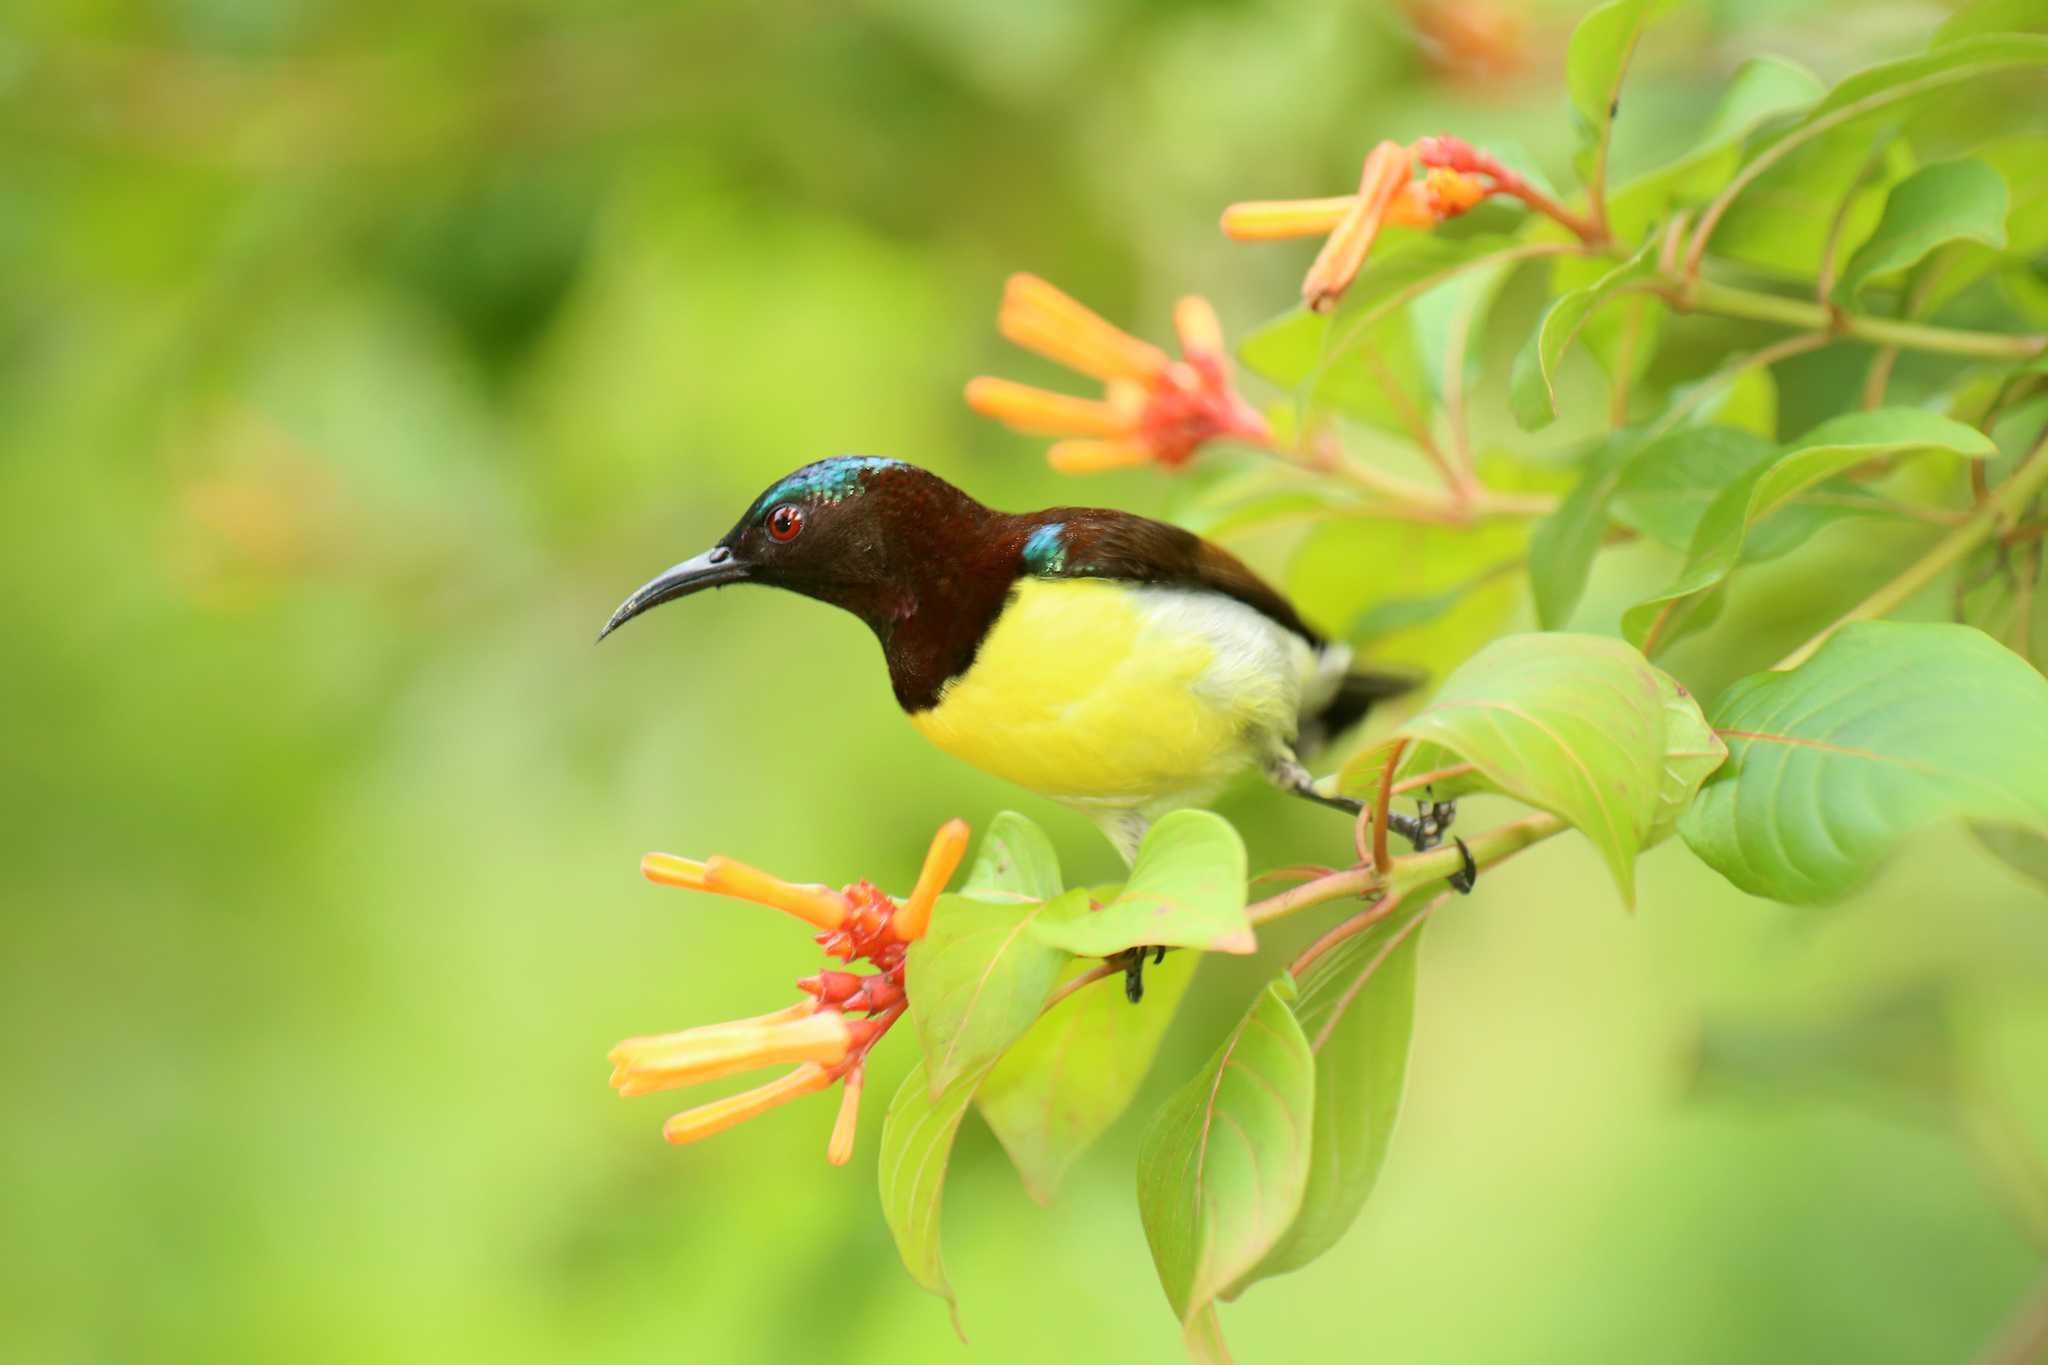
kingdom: Animalia
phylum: Chordata
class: Aves
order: Passeriformes
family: Nectariniidae
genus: Leptocoma
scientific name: Leptocoma zeylonica
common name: Purple-rumped sunbird
